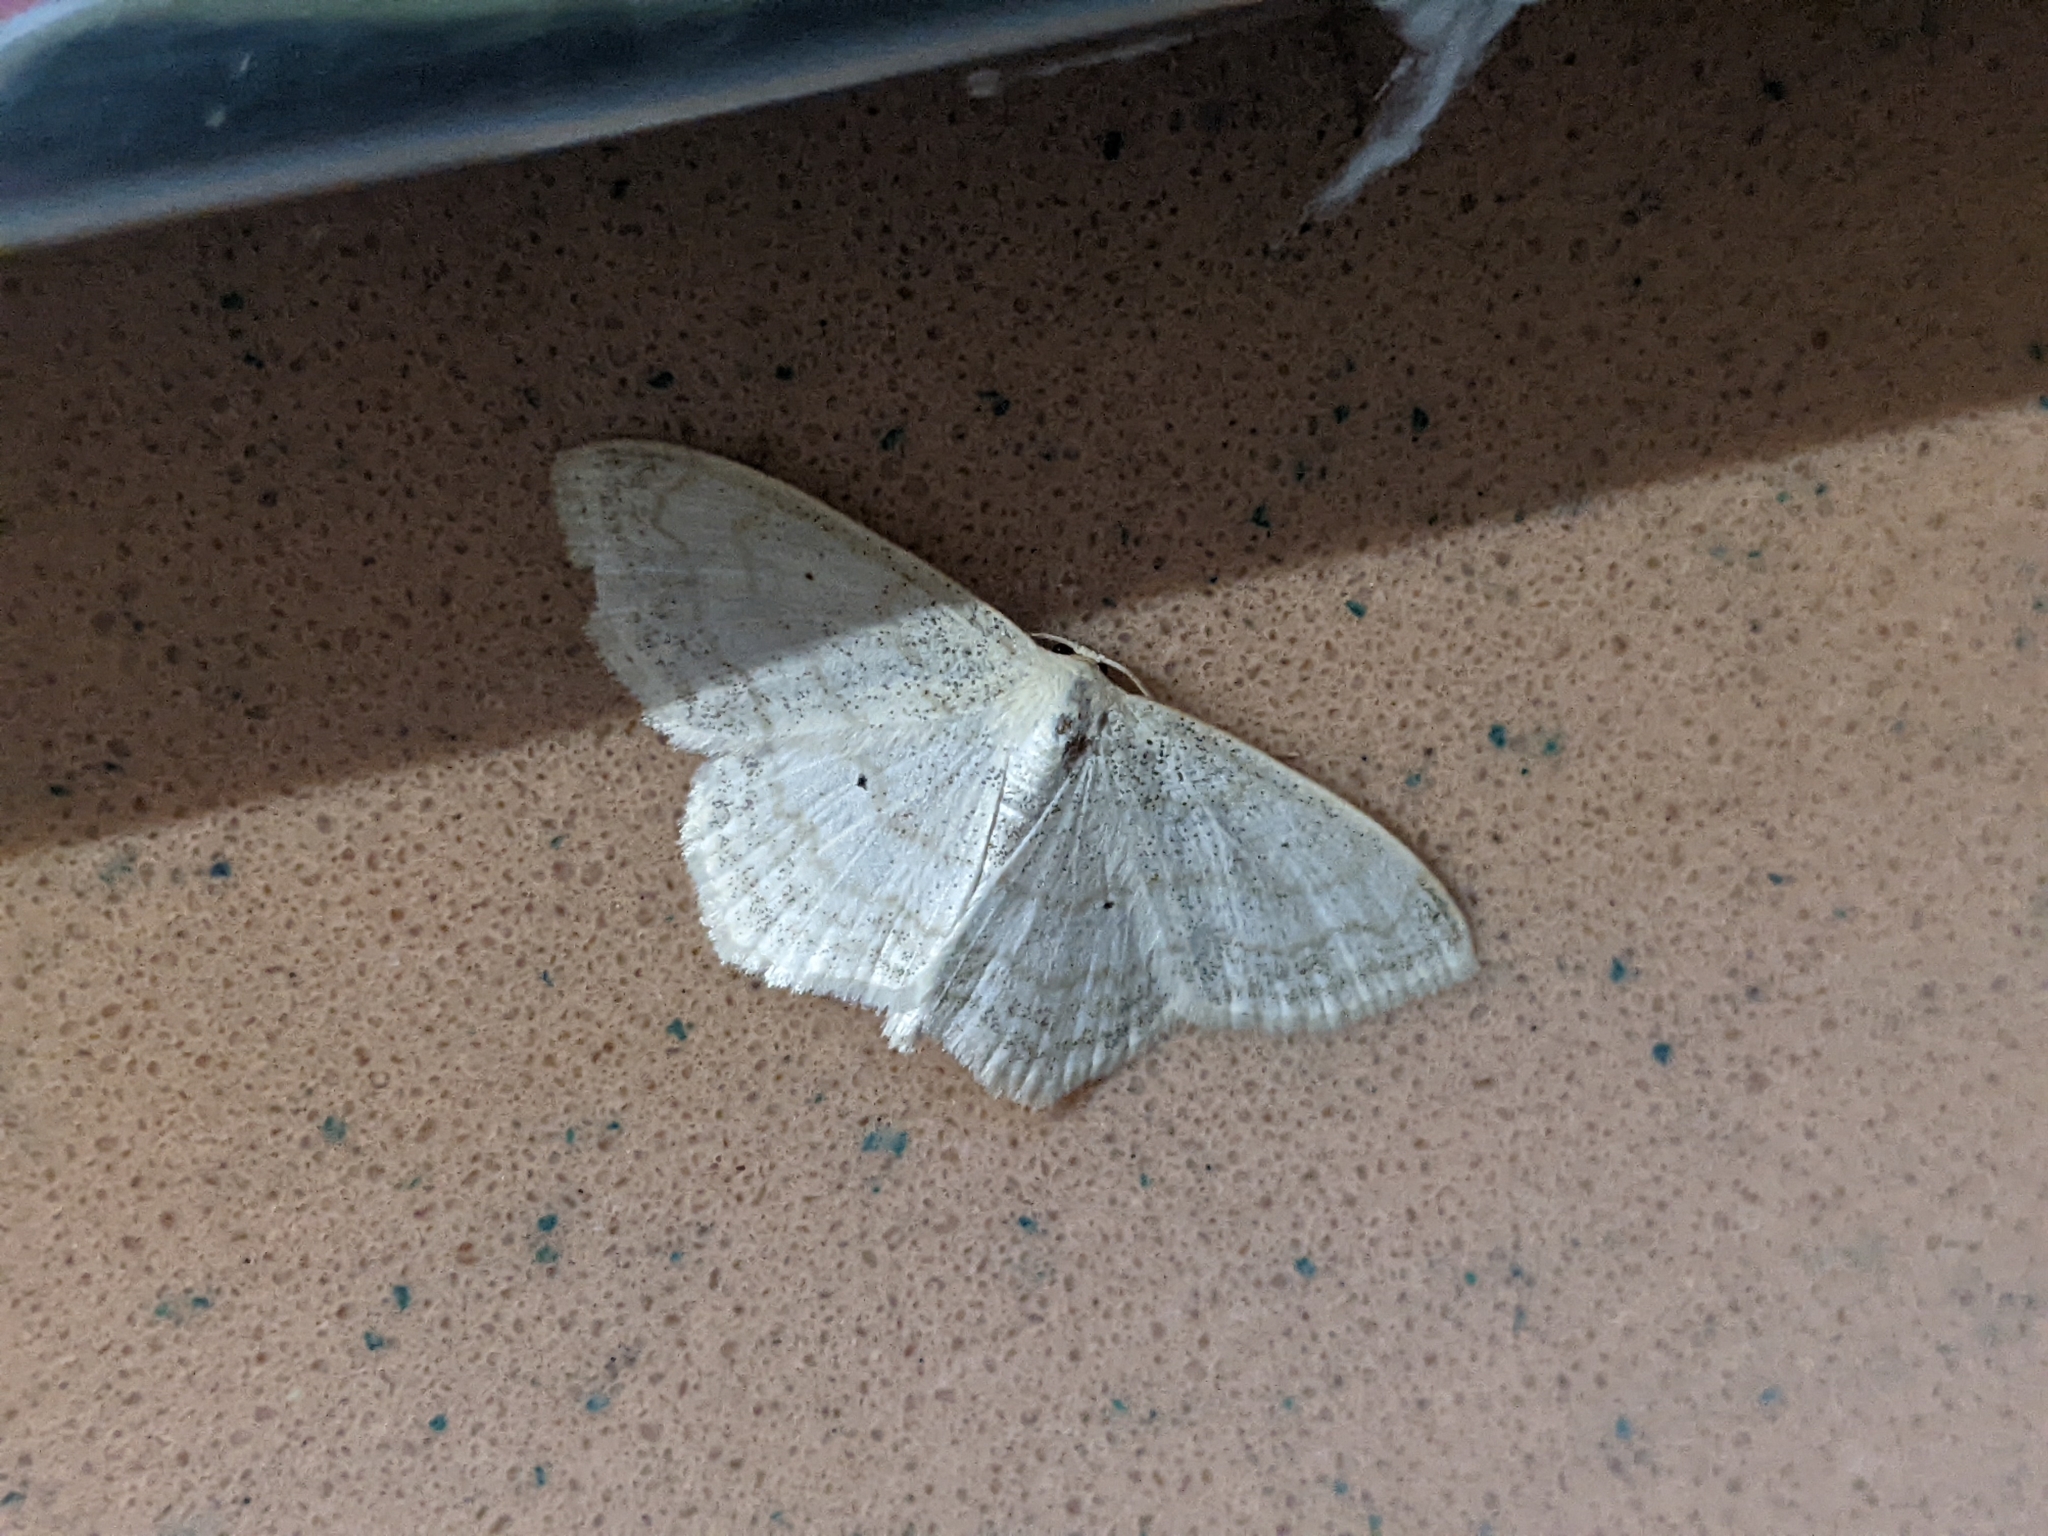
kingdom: Animalia
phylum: Arthropoda
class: Insecta
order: Lepidoptera
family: Geometridae
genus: Scopula
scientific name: Scopula limboundata
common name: Large lace border
